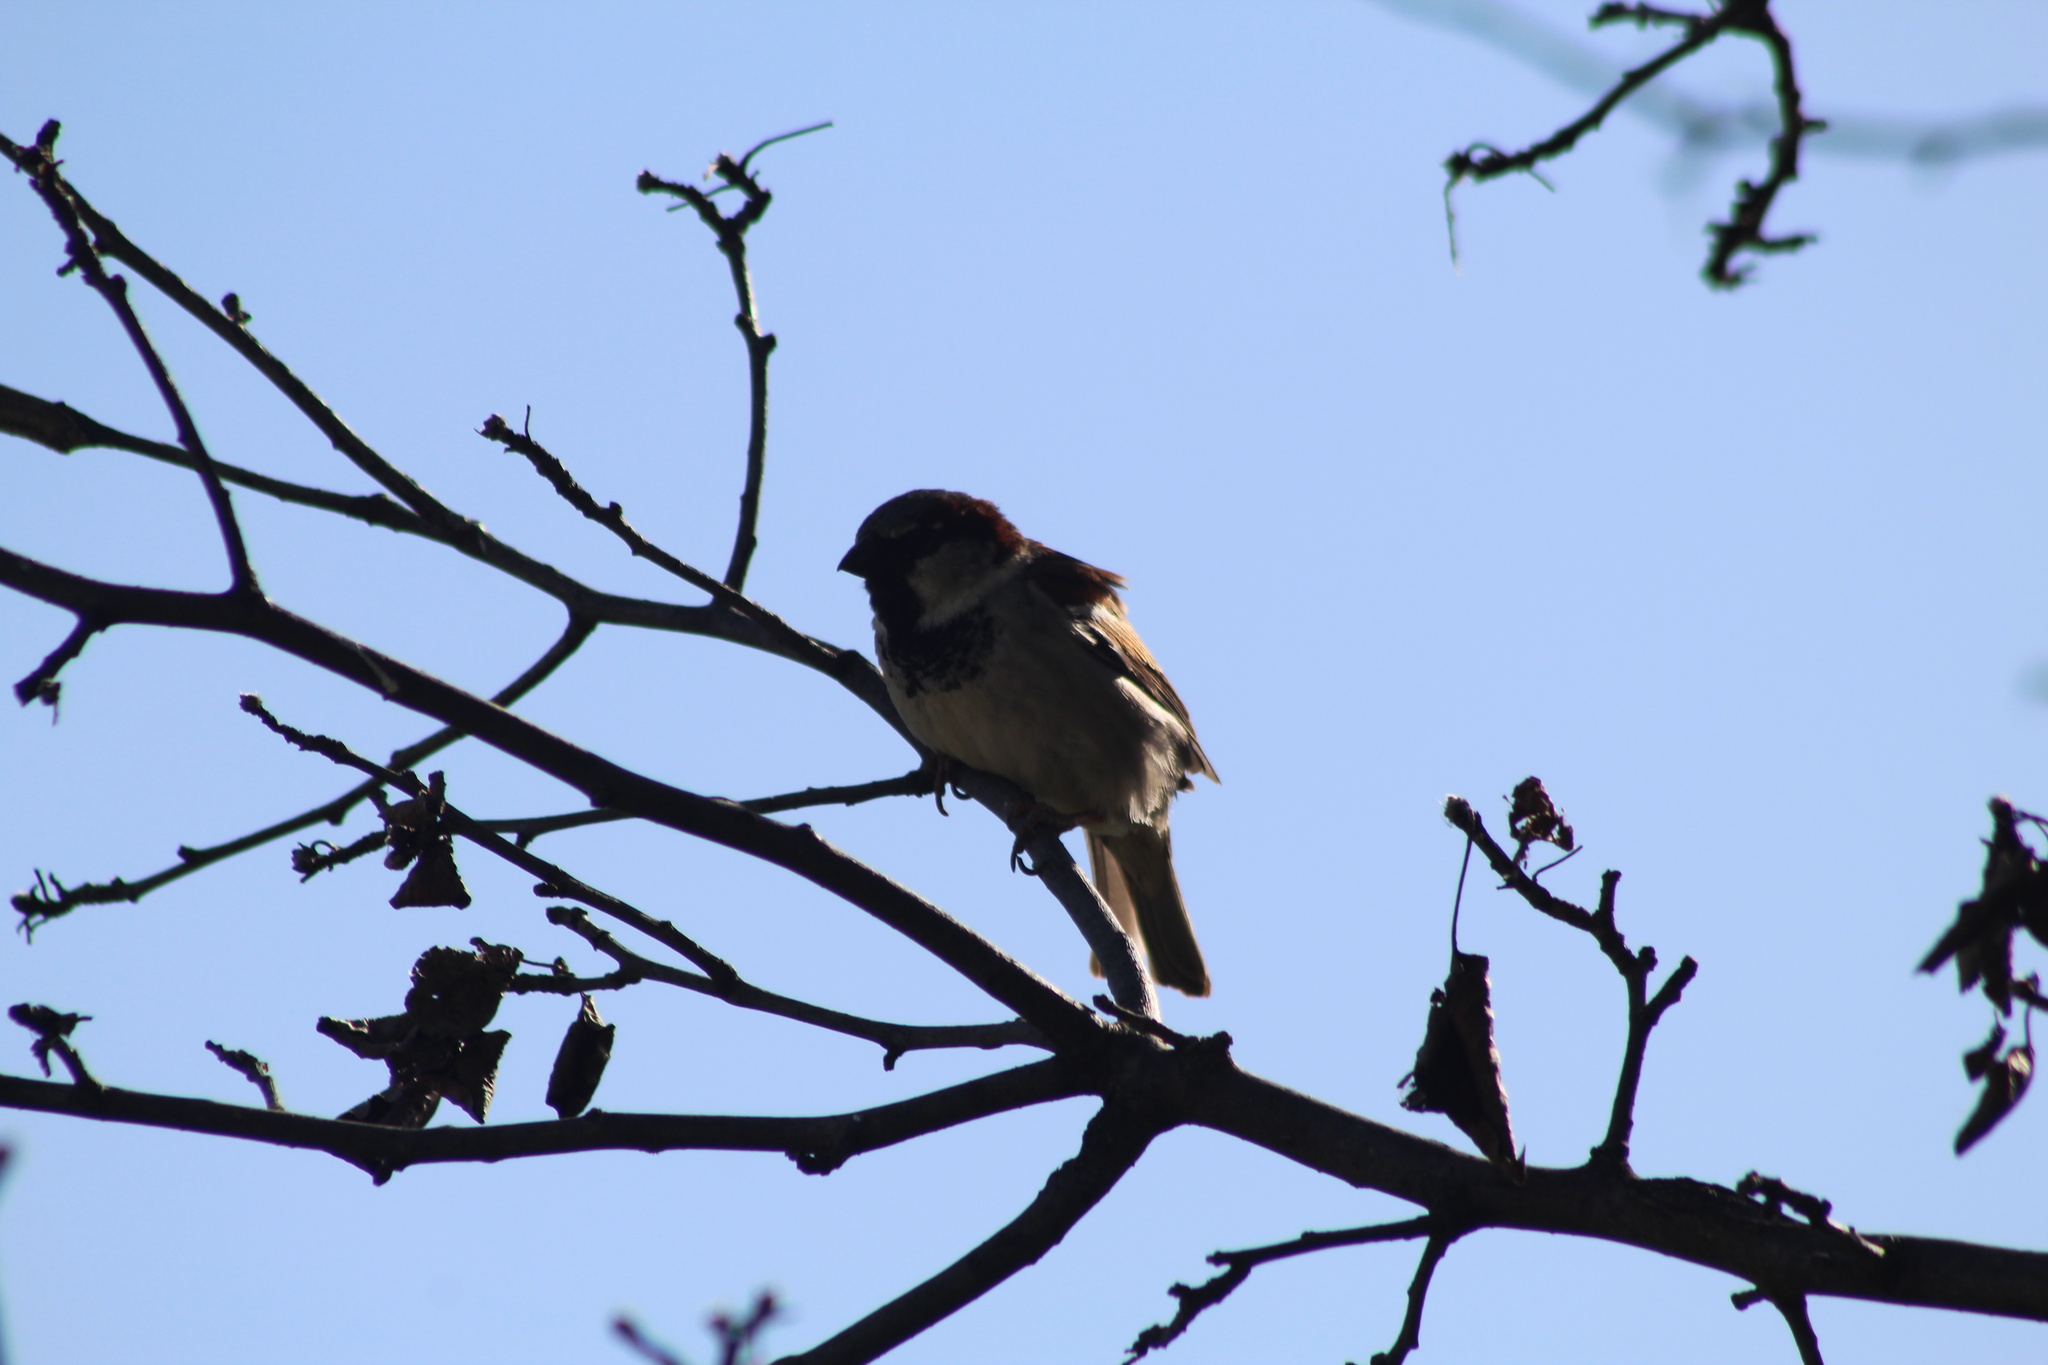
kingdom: Animalia
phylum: Chordata
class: Aves
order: Passeriformes
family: Passeridae
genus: Passer
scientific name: Passer domesticus
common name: House sparrow
